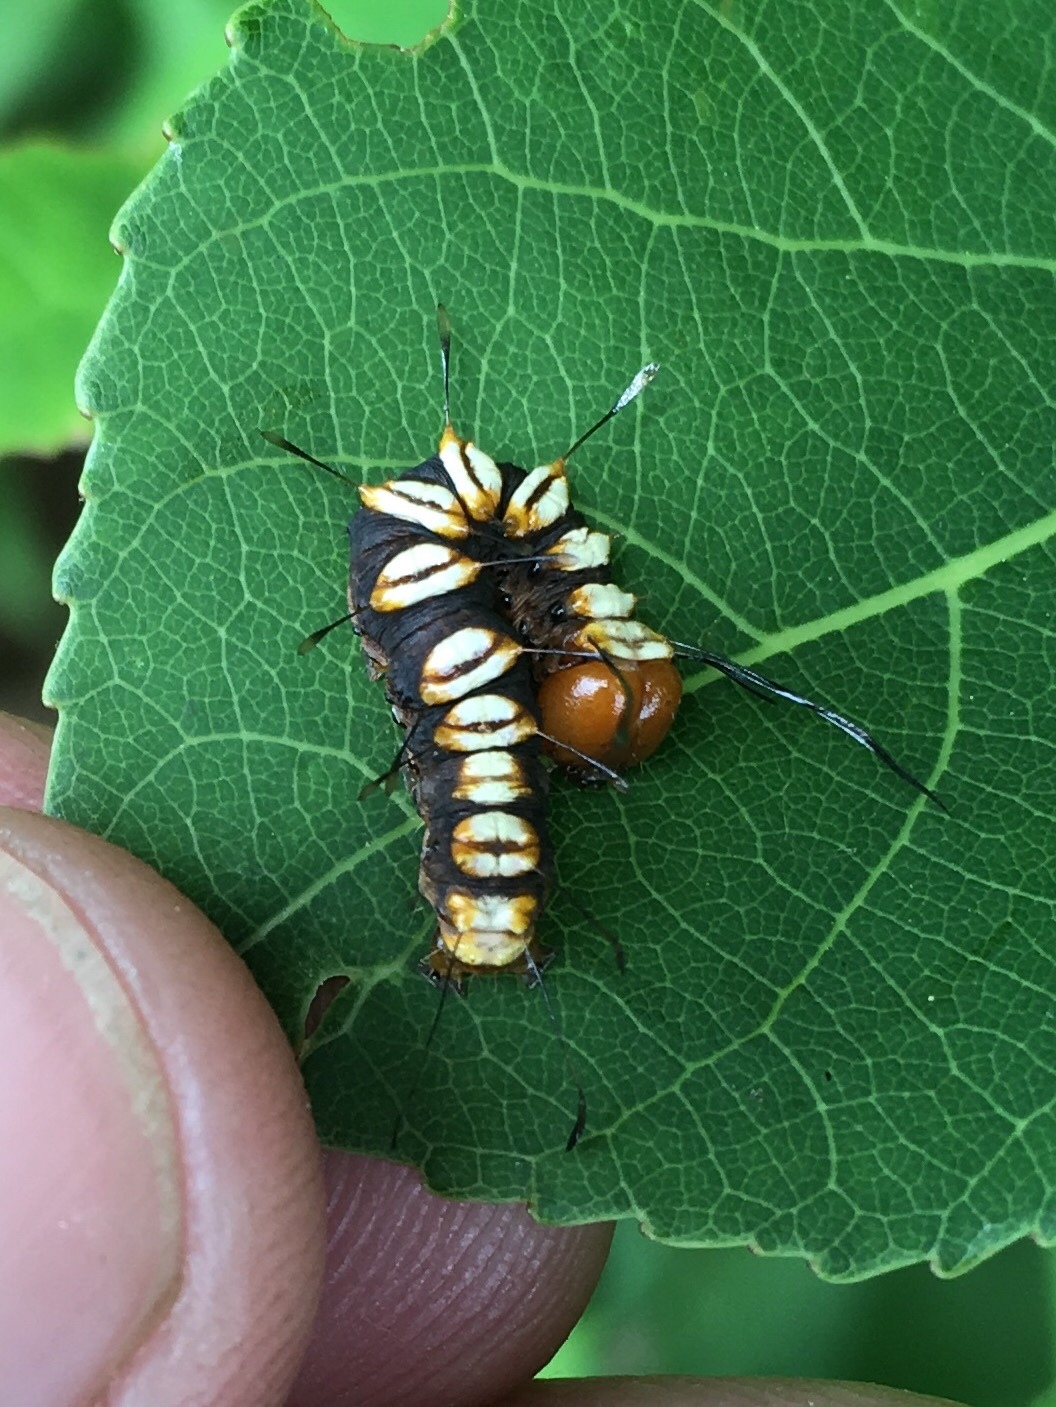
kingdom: Animalia
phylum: Arthropoda
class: Insecta
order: Lepidoptera
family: Noctuidae
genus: Acronicta
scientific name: Acronicta funeralis
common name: Funerary dagger
